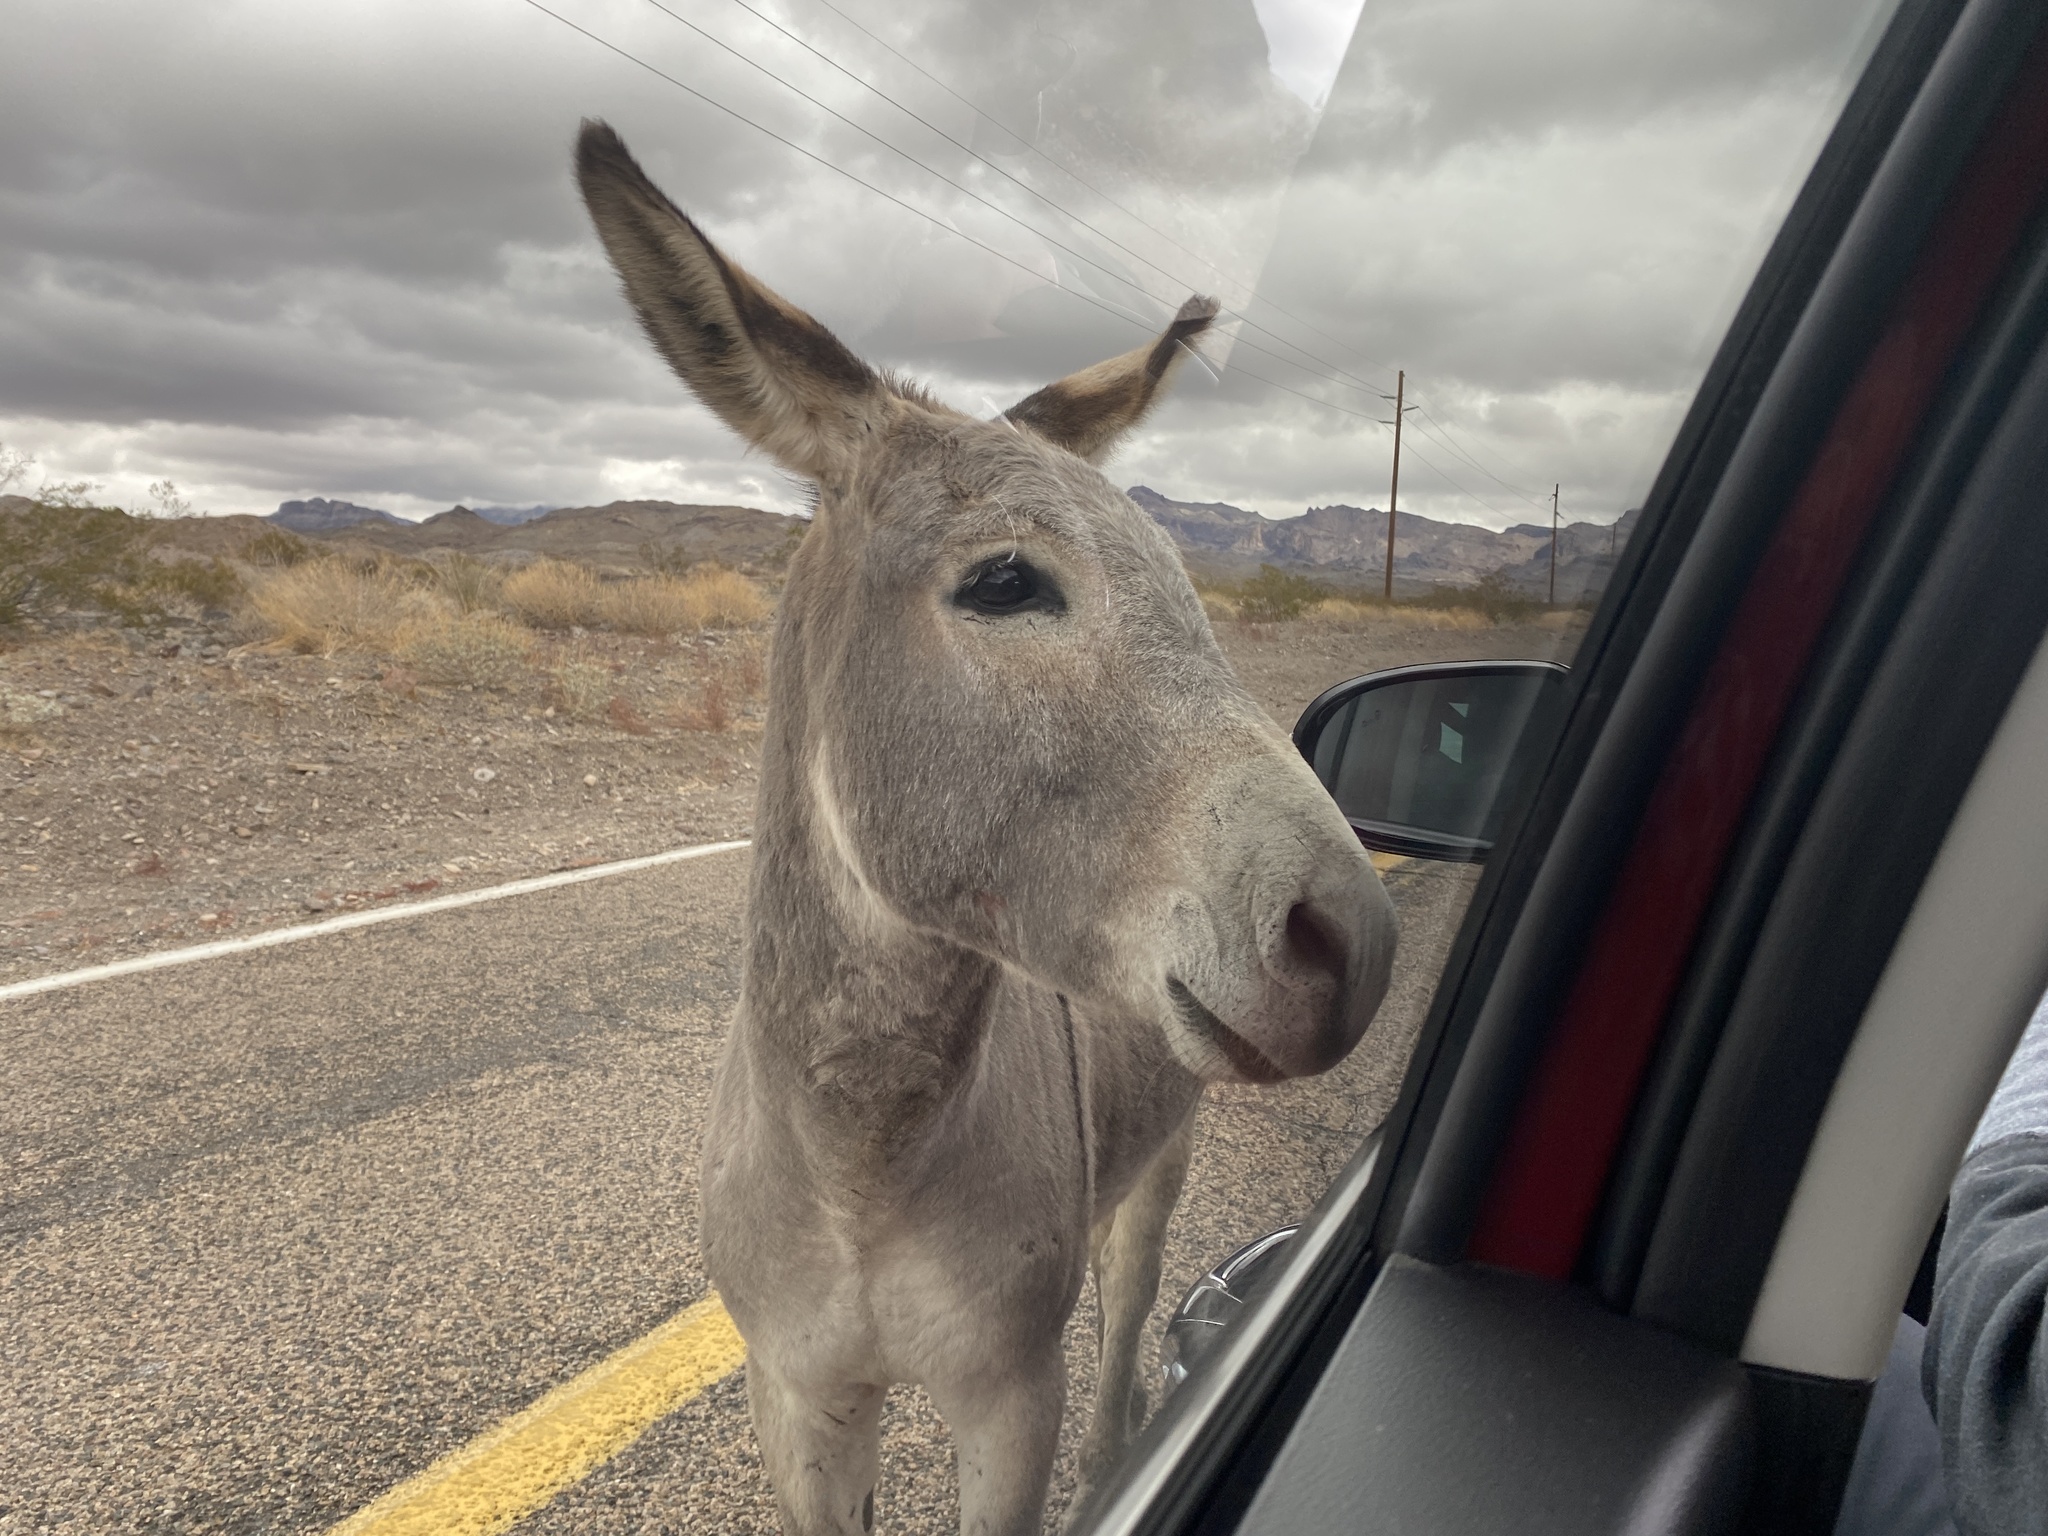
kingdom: Animalia
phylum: Chordata
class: Mammalia
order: Perissodactyla
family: Equidae
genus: Equus
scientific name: Equus asinus
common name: Ass
